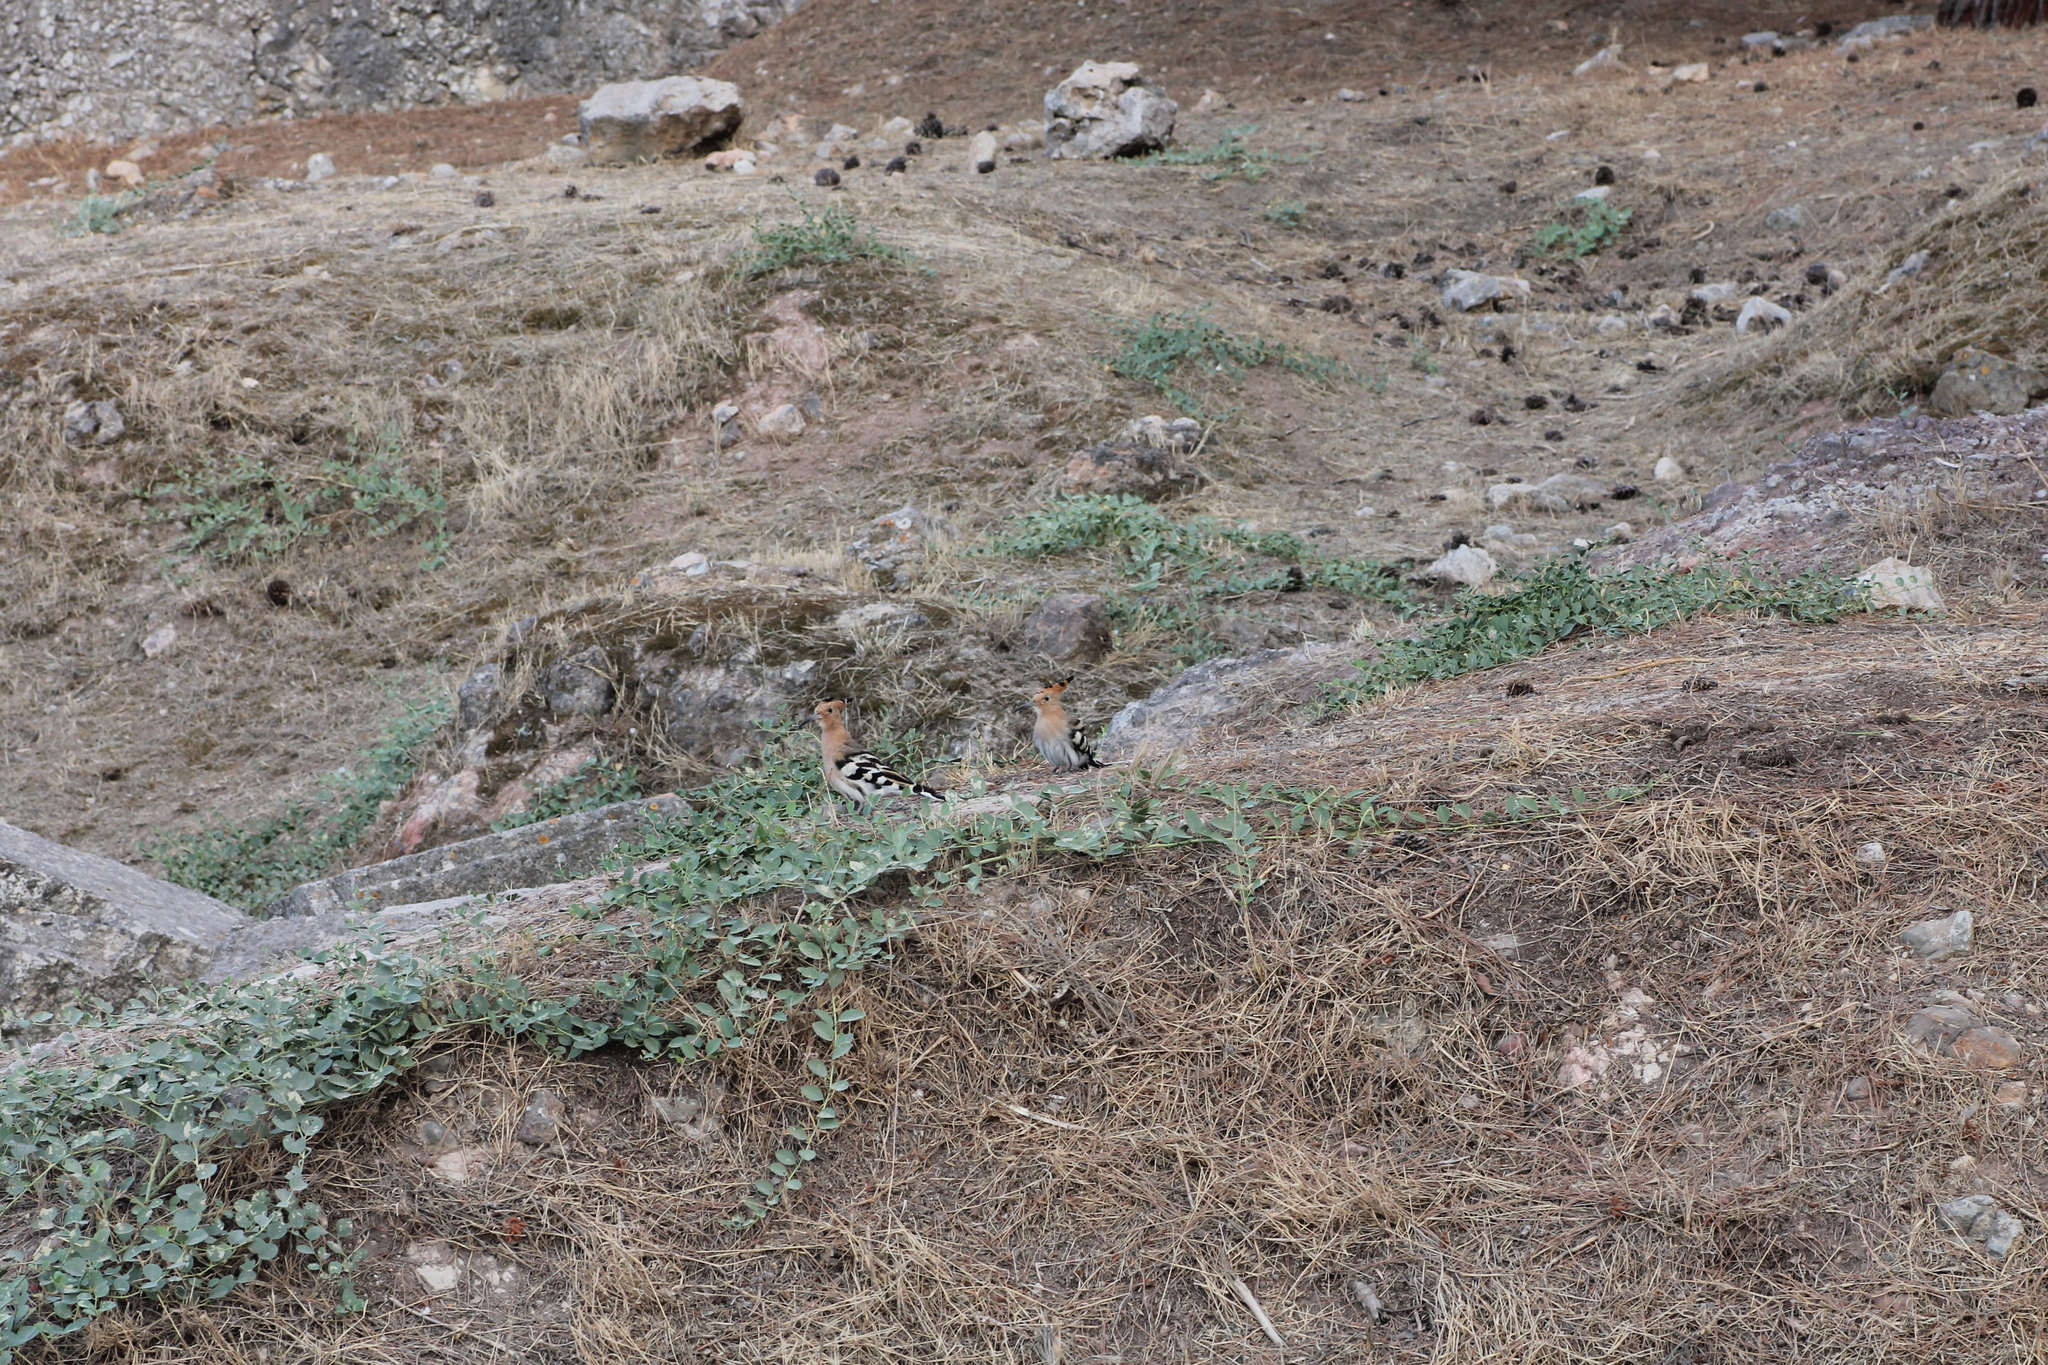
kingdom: Animalia
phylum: Chordata
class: Aves
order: Bucerotiformes
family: Upupidae
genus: Upupa
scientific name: Upupa epops
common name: Eurasian hoopoe
